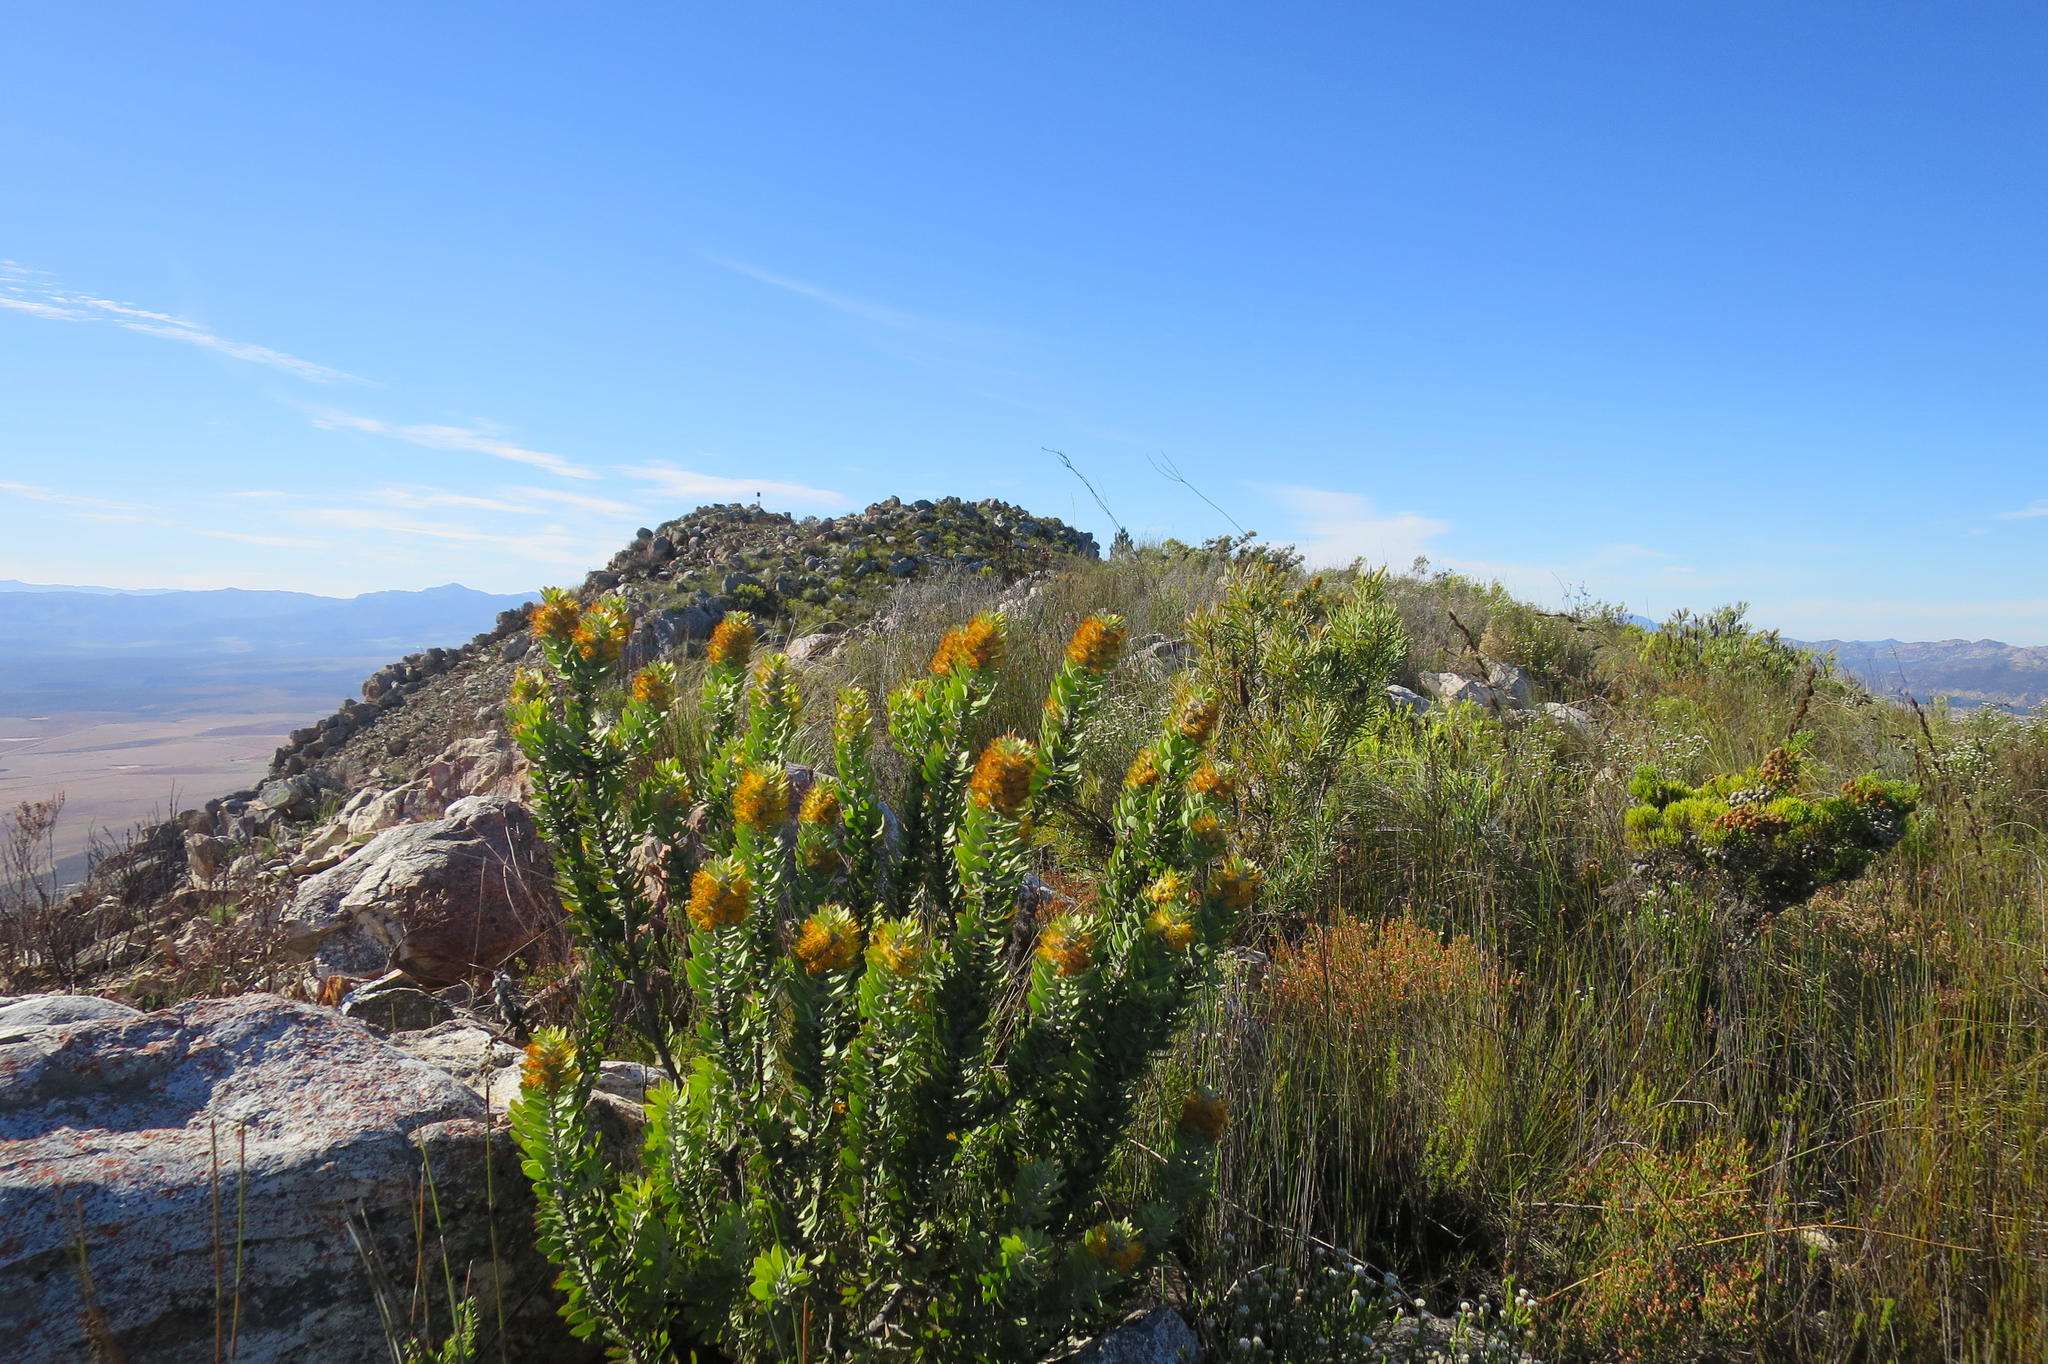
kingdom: Plantae
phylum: Tracheophyta
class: Magnoliopsida
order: Proteales
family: Proteaceae
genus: Mimetes
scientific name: Mimetes chrysanthus
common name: Golden pagoda
